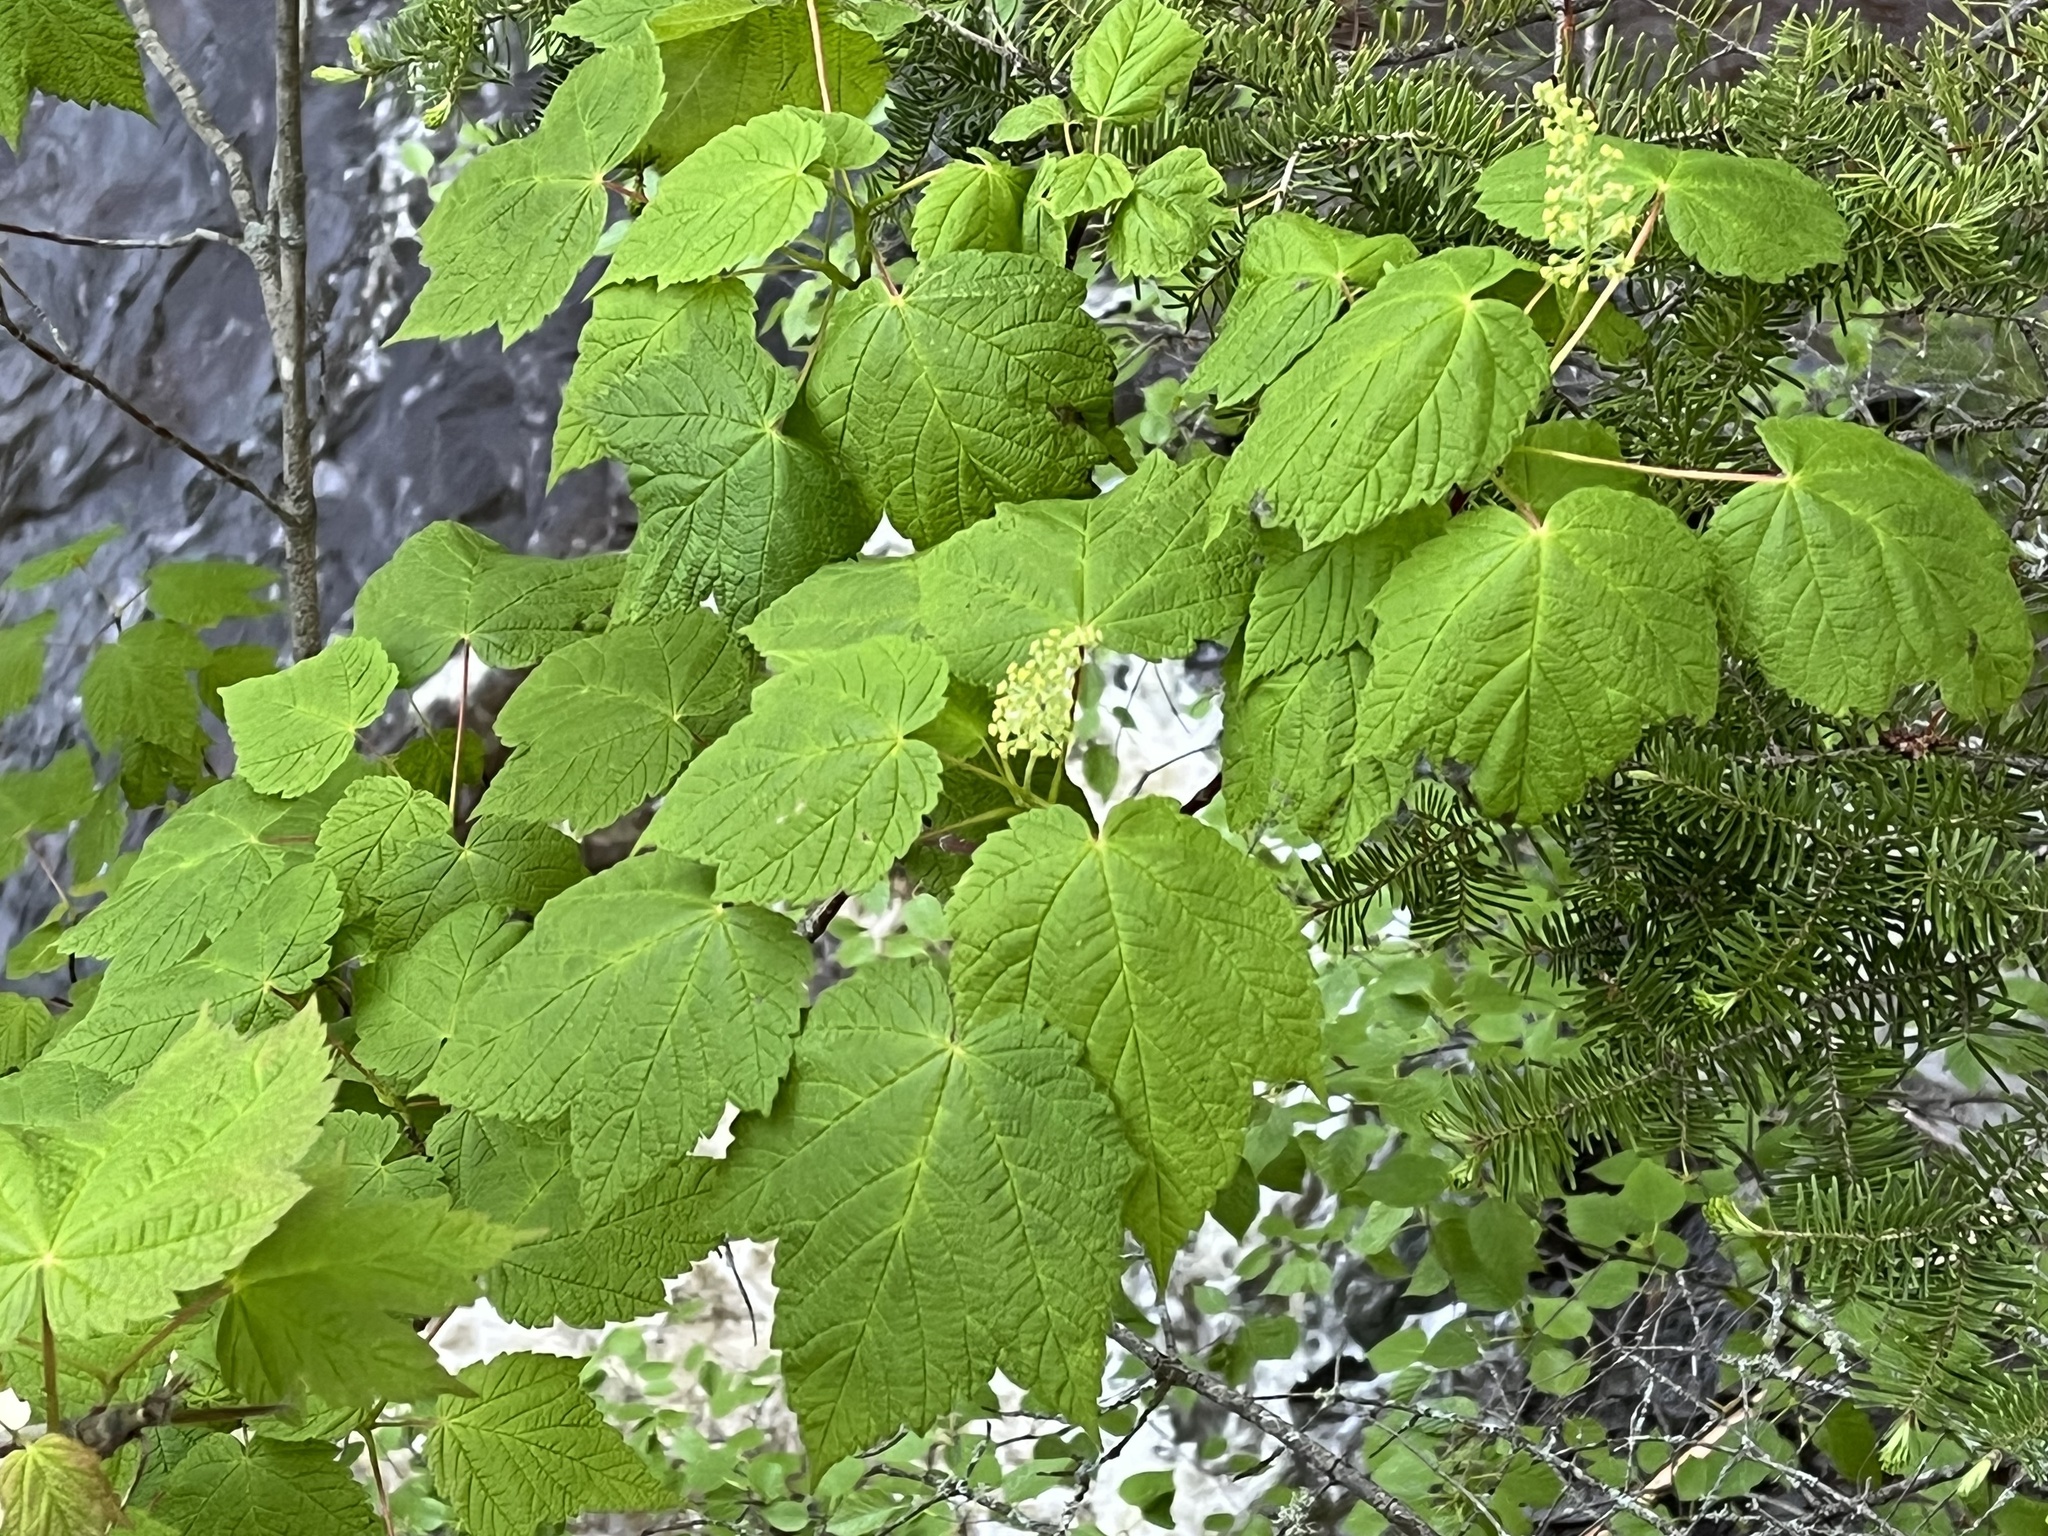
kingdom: Plantae
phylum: Tracheophyta
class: Magnoliopsida
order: Sapindales
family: Sapindaceae
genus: Acer
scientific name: Acer spicatum
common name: Mountain maple
